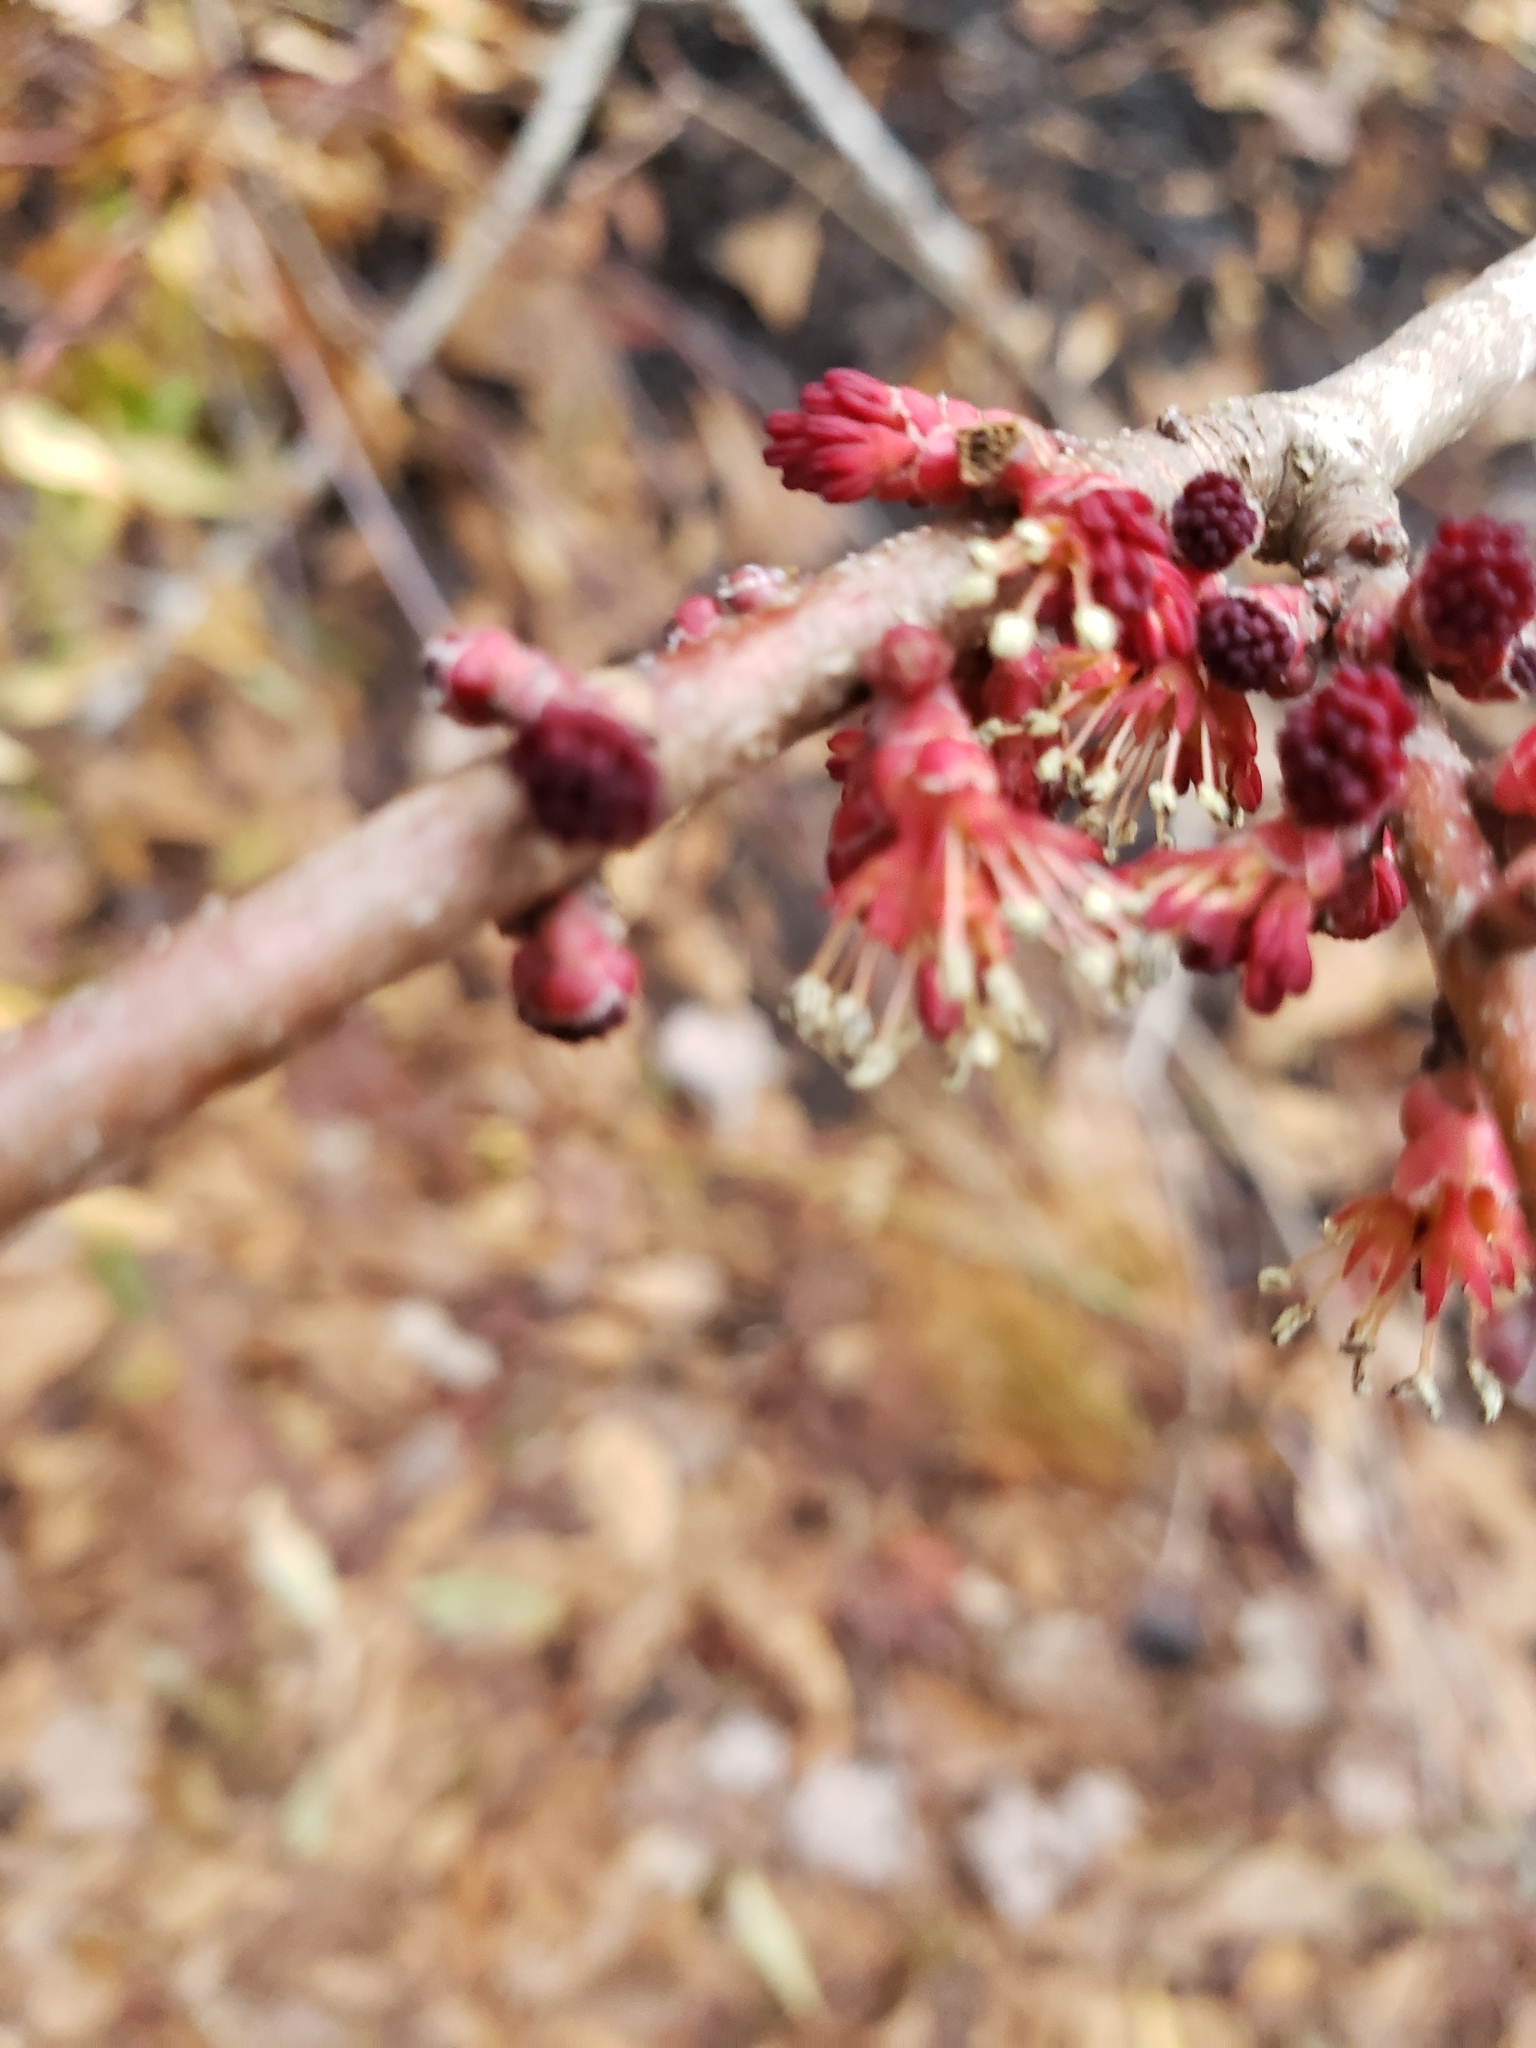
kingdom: Plantae
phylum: Tracheophyta
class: Magnoliopsida
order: Sapindales
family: Sapindaceae
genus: Acer
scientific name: Acer rubrum
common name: Red maple
